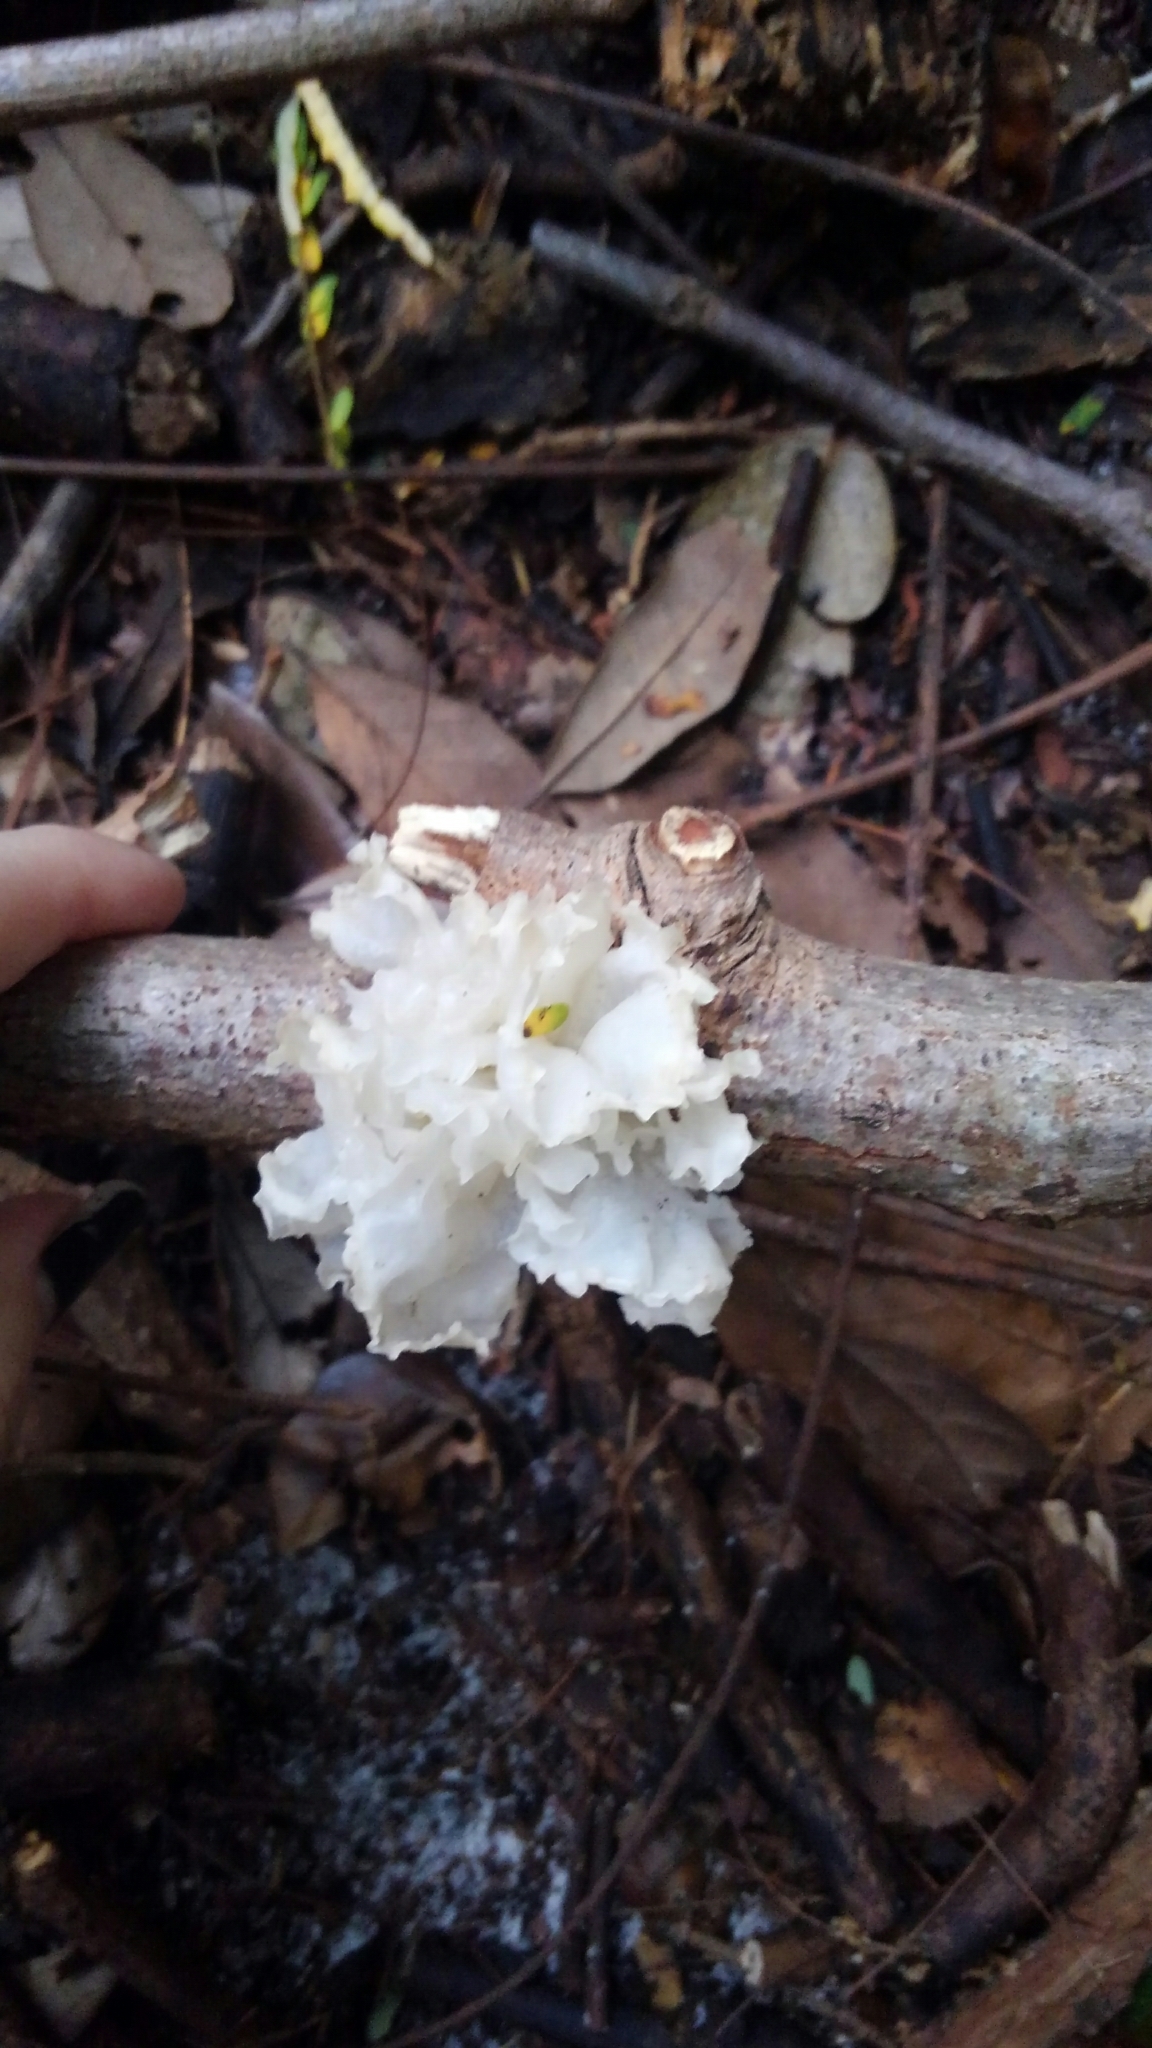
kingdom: Fungi
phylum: Basidiomycota
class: Tremellomycetes
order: Tremellales
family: Tremellaceae
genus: Tremella
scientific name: Tremella fuciformis
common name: Snow fungus
